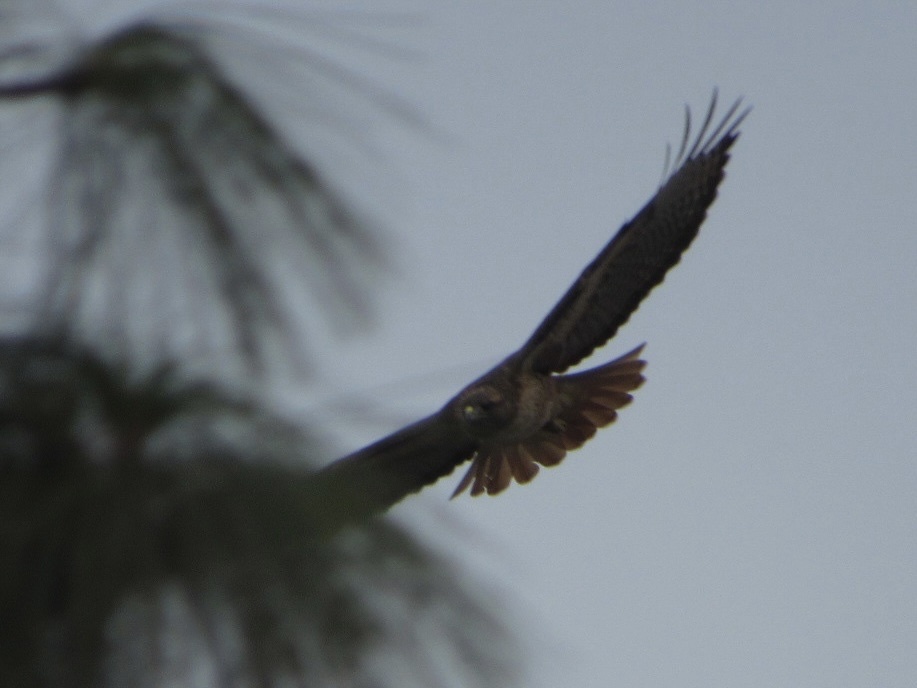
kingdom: Animalia
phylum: Chordata
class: Aves
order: Accipitriformes
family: Accipitridae
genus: Buteo
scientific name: Buteo jamaicensis
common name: Red-tailed hawk
